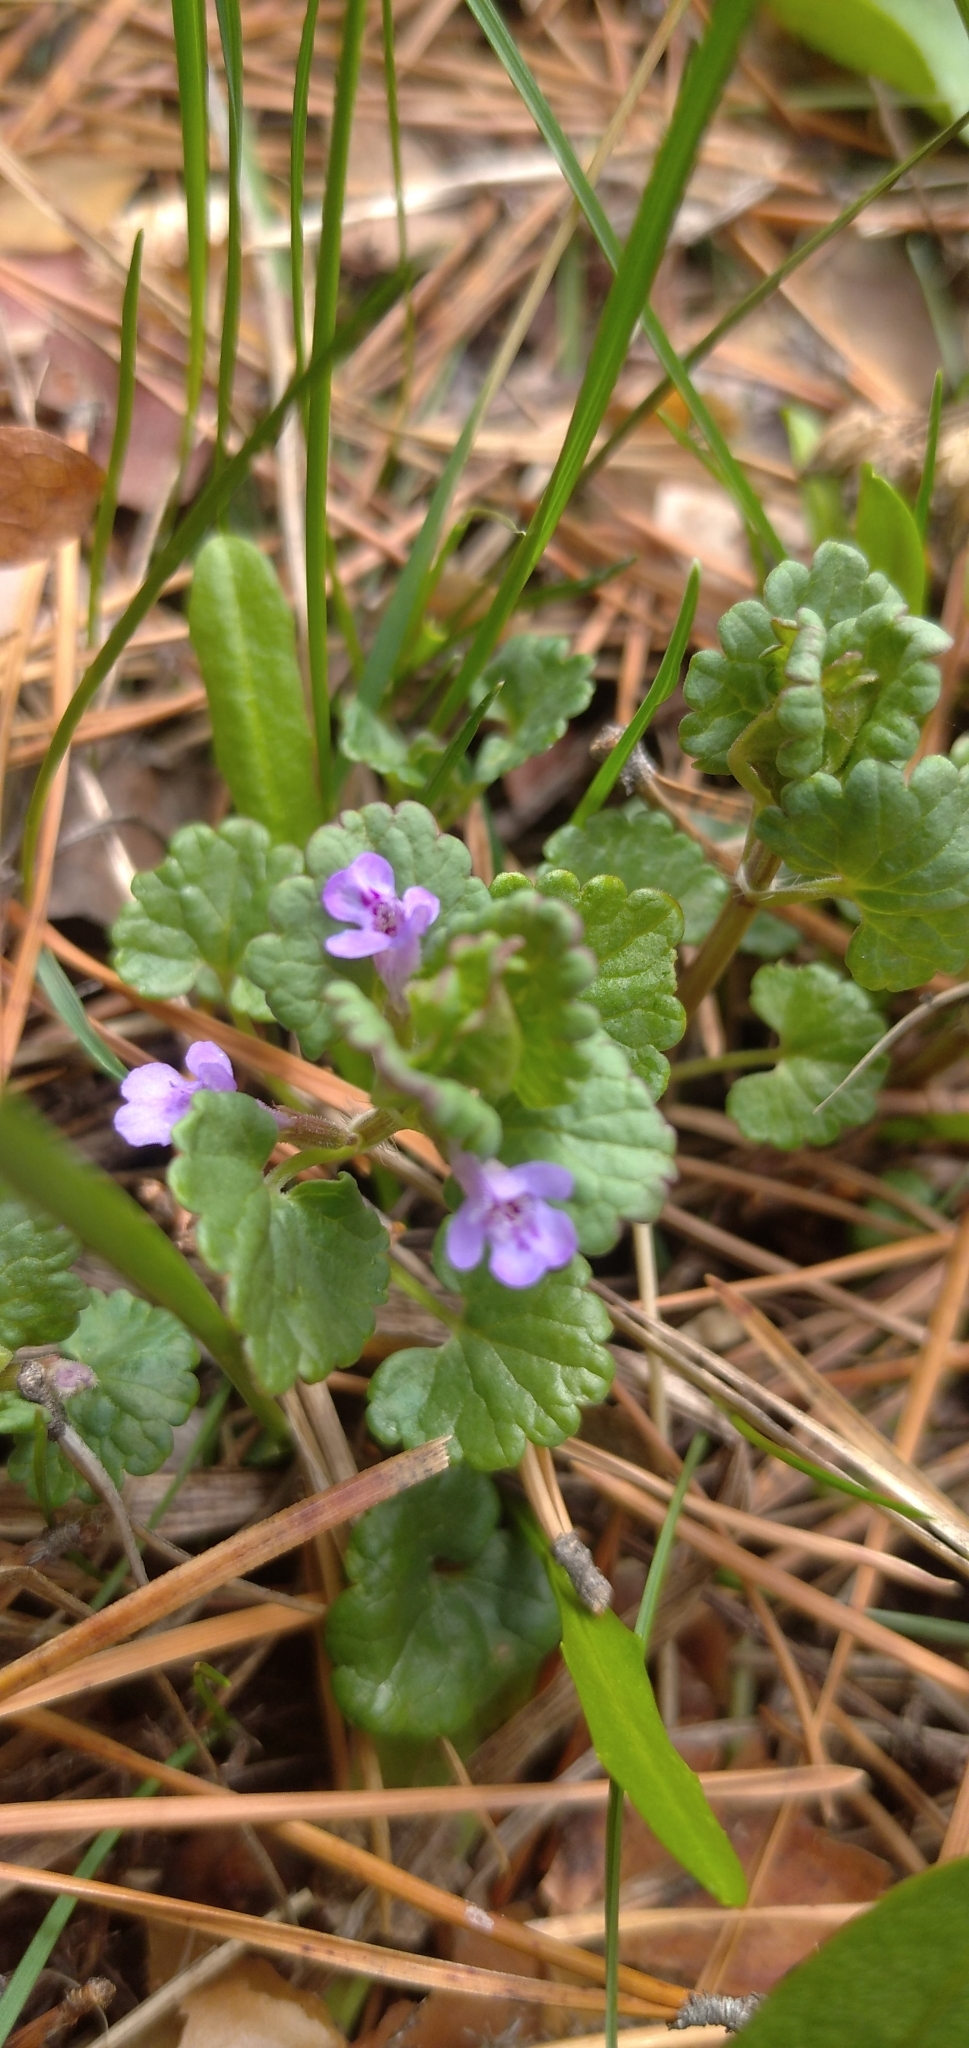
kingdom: Plantae
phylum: Tracheophyta
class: Magnoliopsida
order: Lamiales
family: Lamiaceae
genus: Glechoma
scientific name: Glechoma hederacea
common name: Ground ivy
